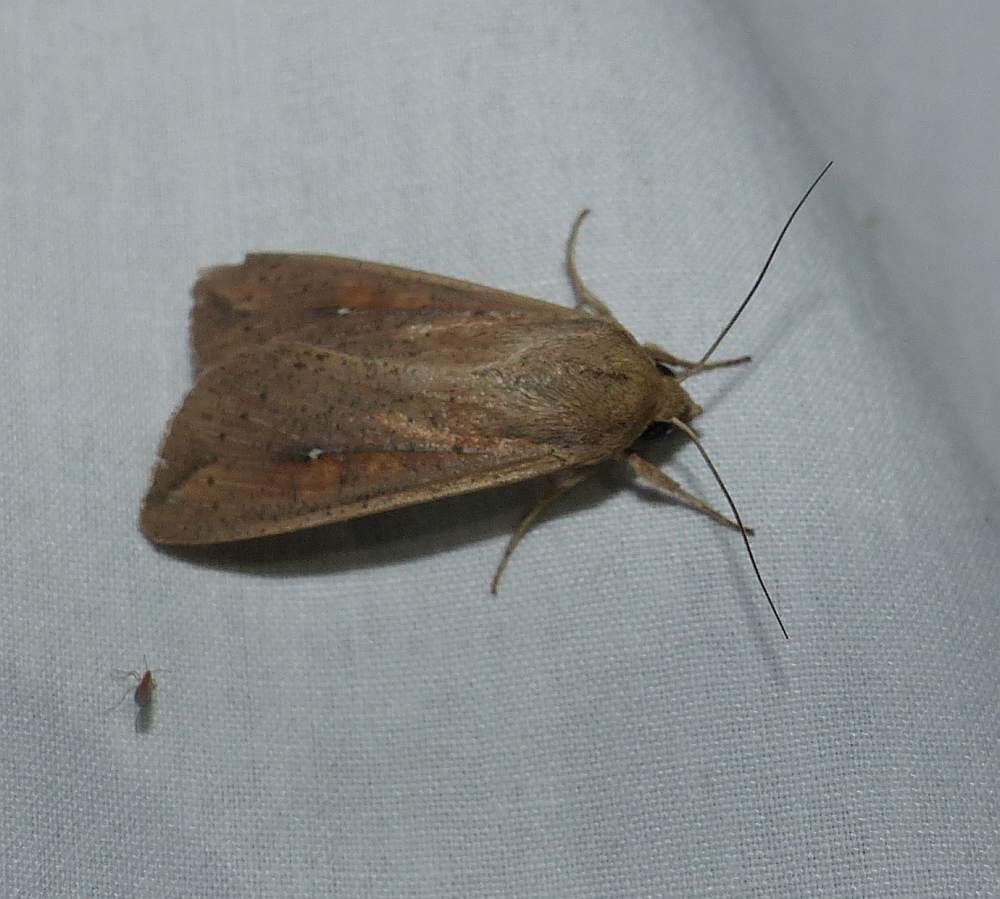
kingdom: Animalia
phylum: Arthropoda
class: Insecta
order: Lepidoptera
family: Noctuidae
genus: Mythimna
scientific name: Mythimna unipuncta
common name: White-speck
